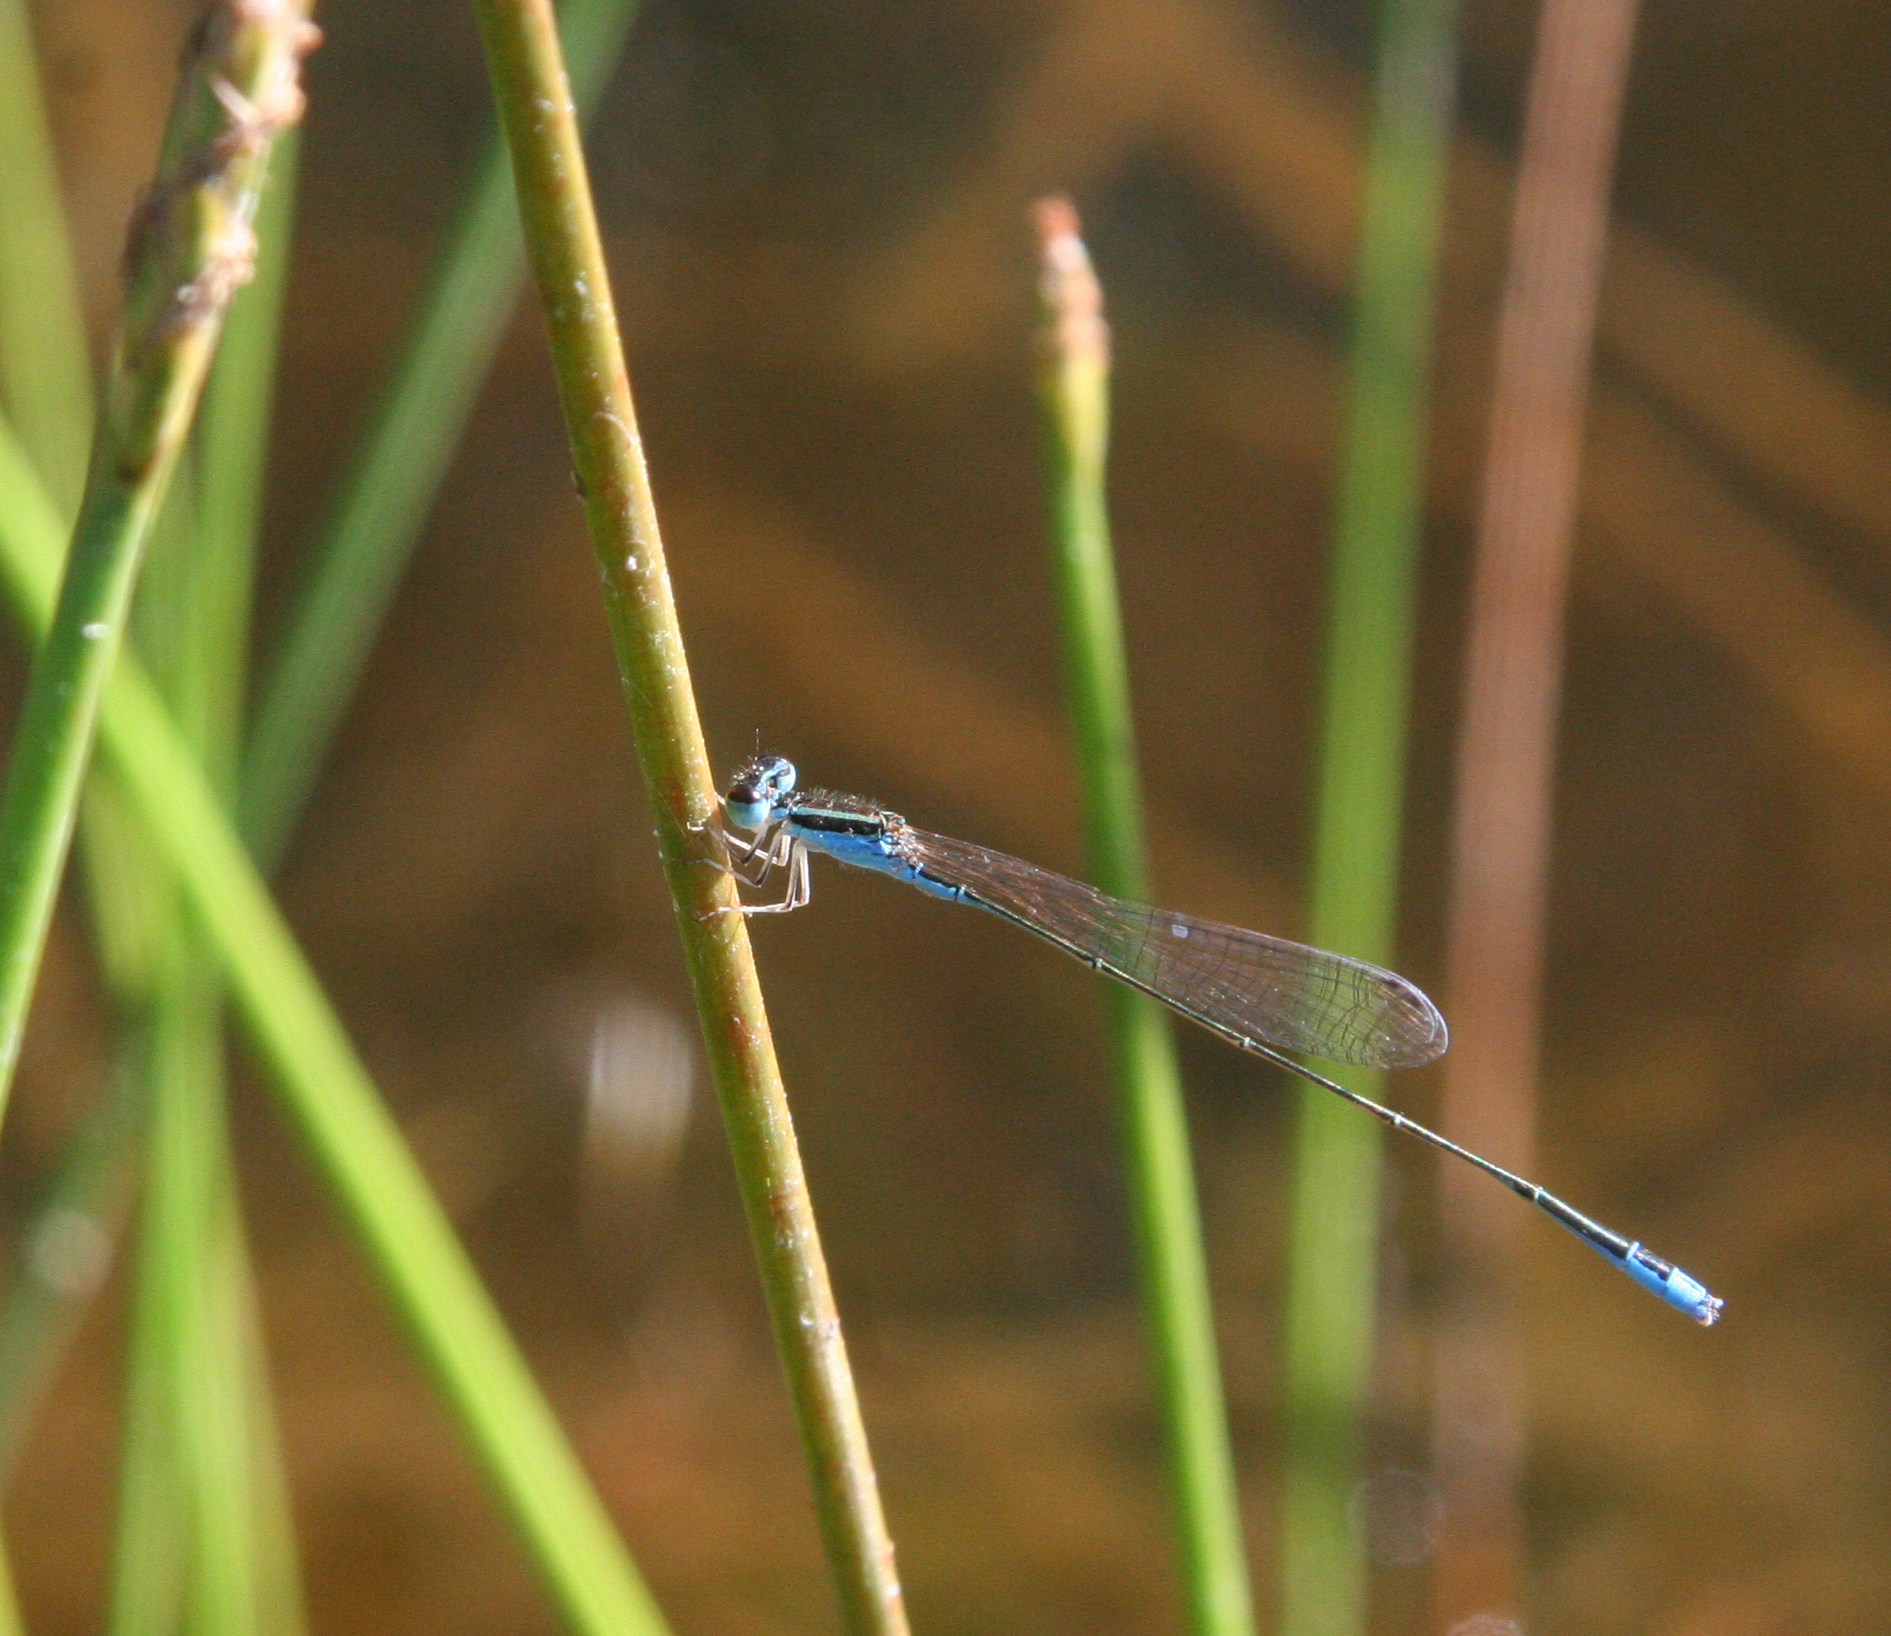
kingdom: Animalia
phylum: Arthropoda
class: Insecta
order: Odonata
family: Coenagrionidae
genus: Aciagrion
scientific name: Aciagrion borneense
